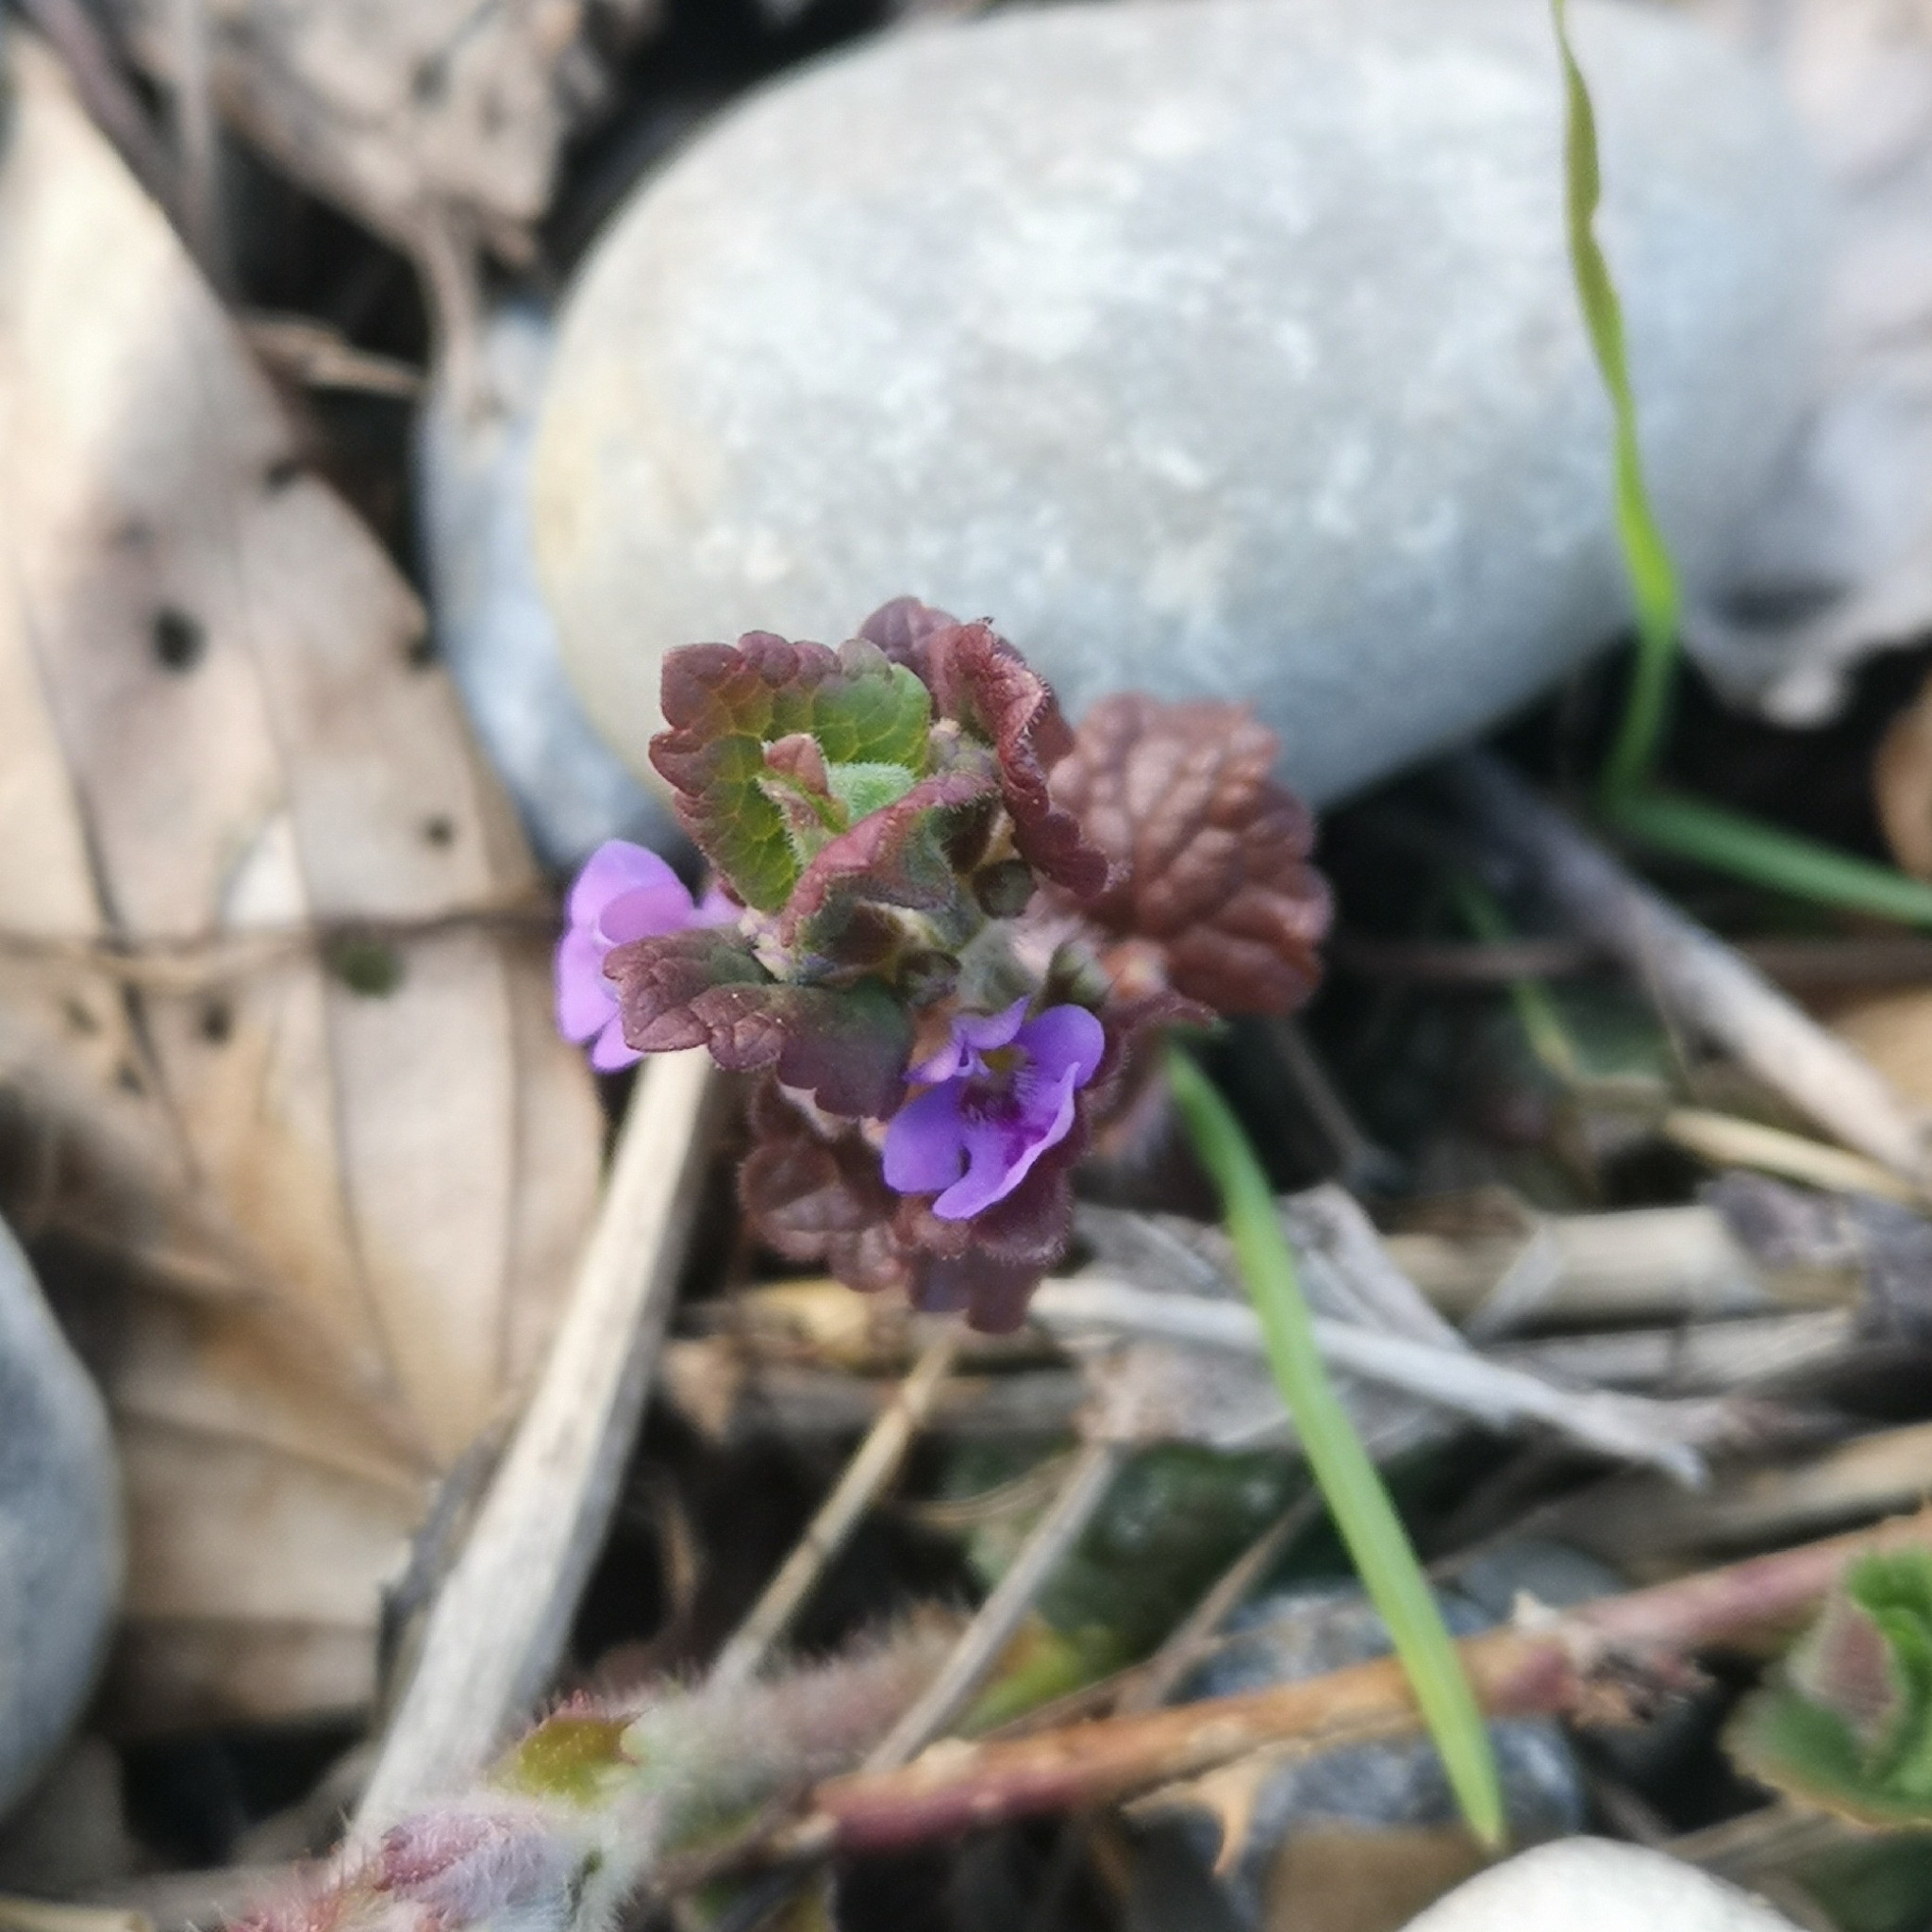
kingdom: Plantae
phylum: Tracheophyta
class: Magnoliopsida
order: Lamiales
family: Lamiaceae
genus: Glechoma
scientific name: Glechoma hederacea
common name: Ground ivy
